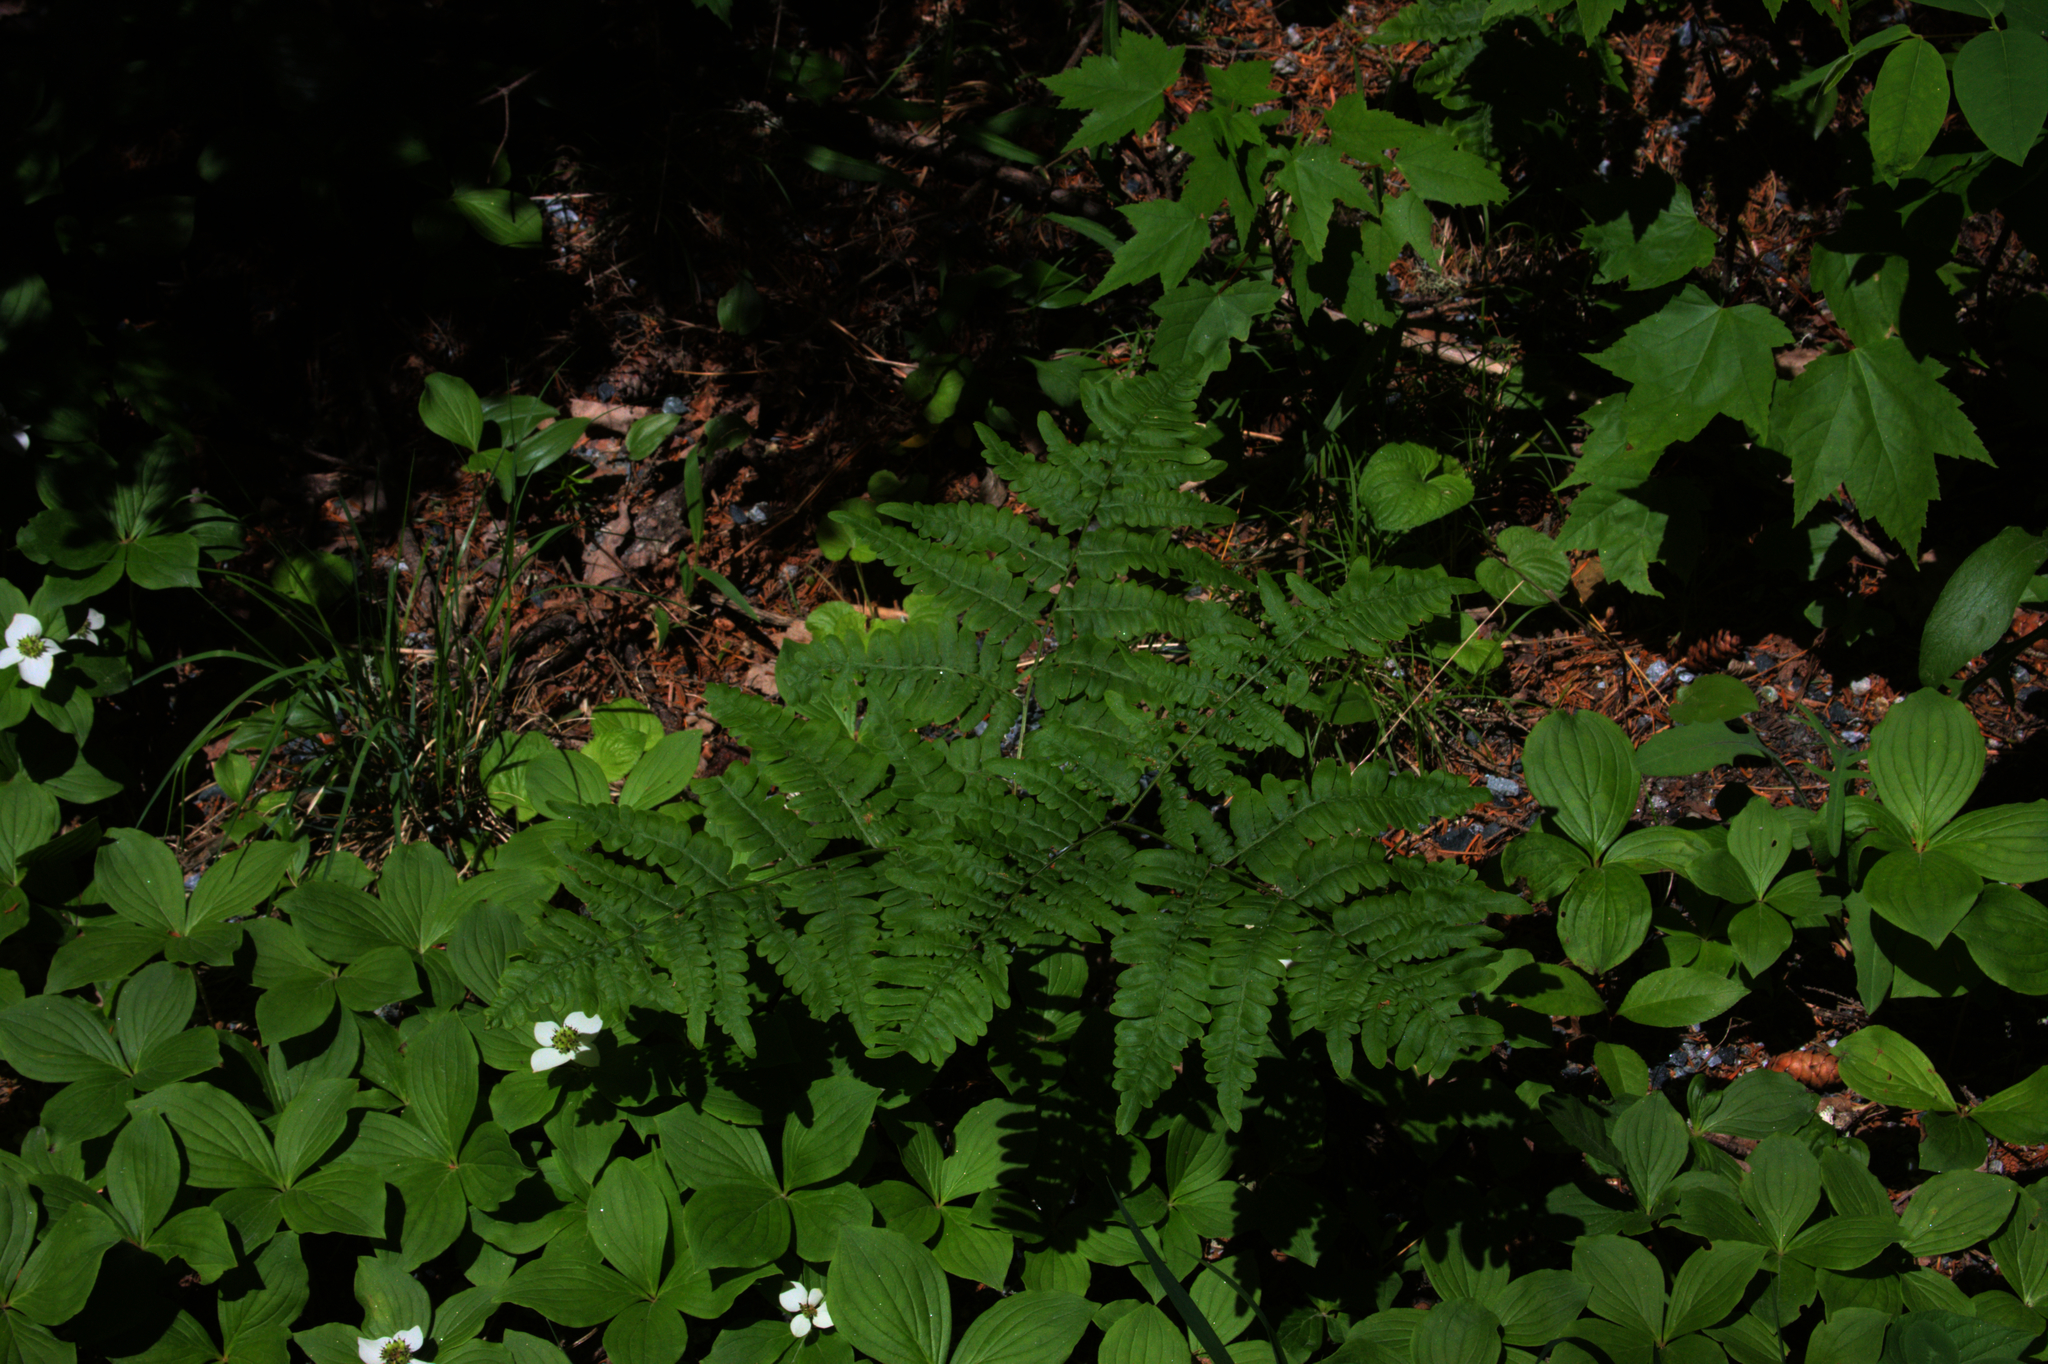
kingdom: Plantae
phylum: Tracheophyta
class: Magnoliopsida
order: Cornales
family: Cornaceae
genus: Cornus
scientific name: Cornus canadensis
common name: Creeping dogwood
